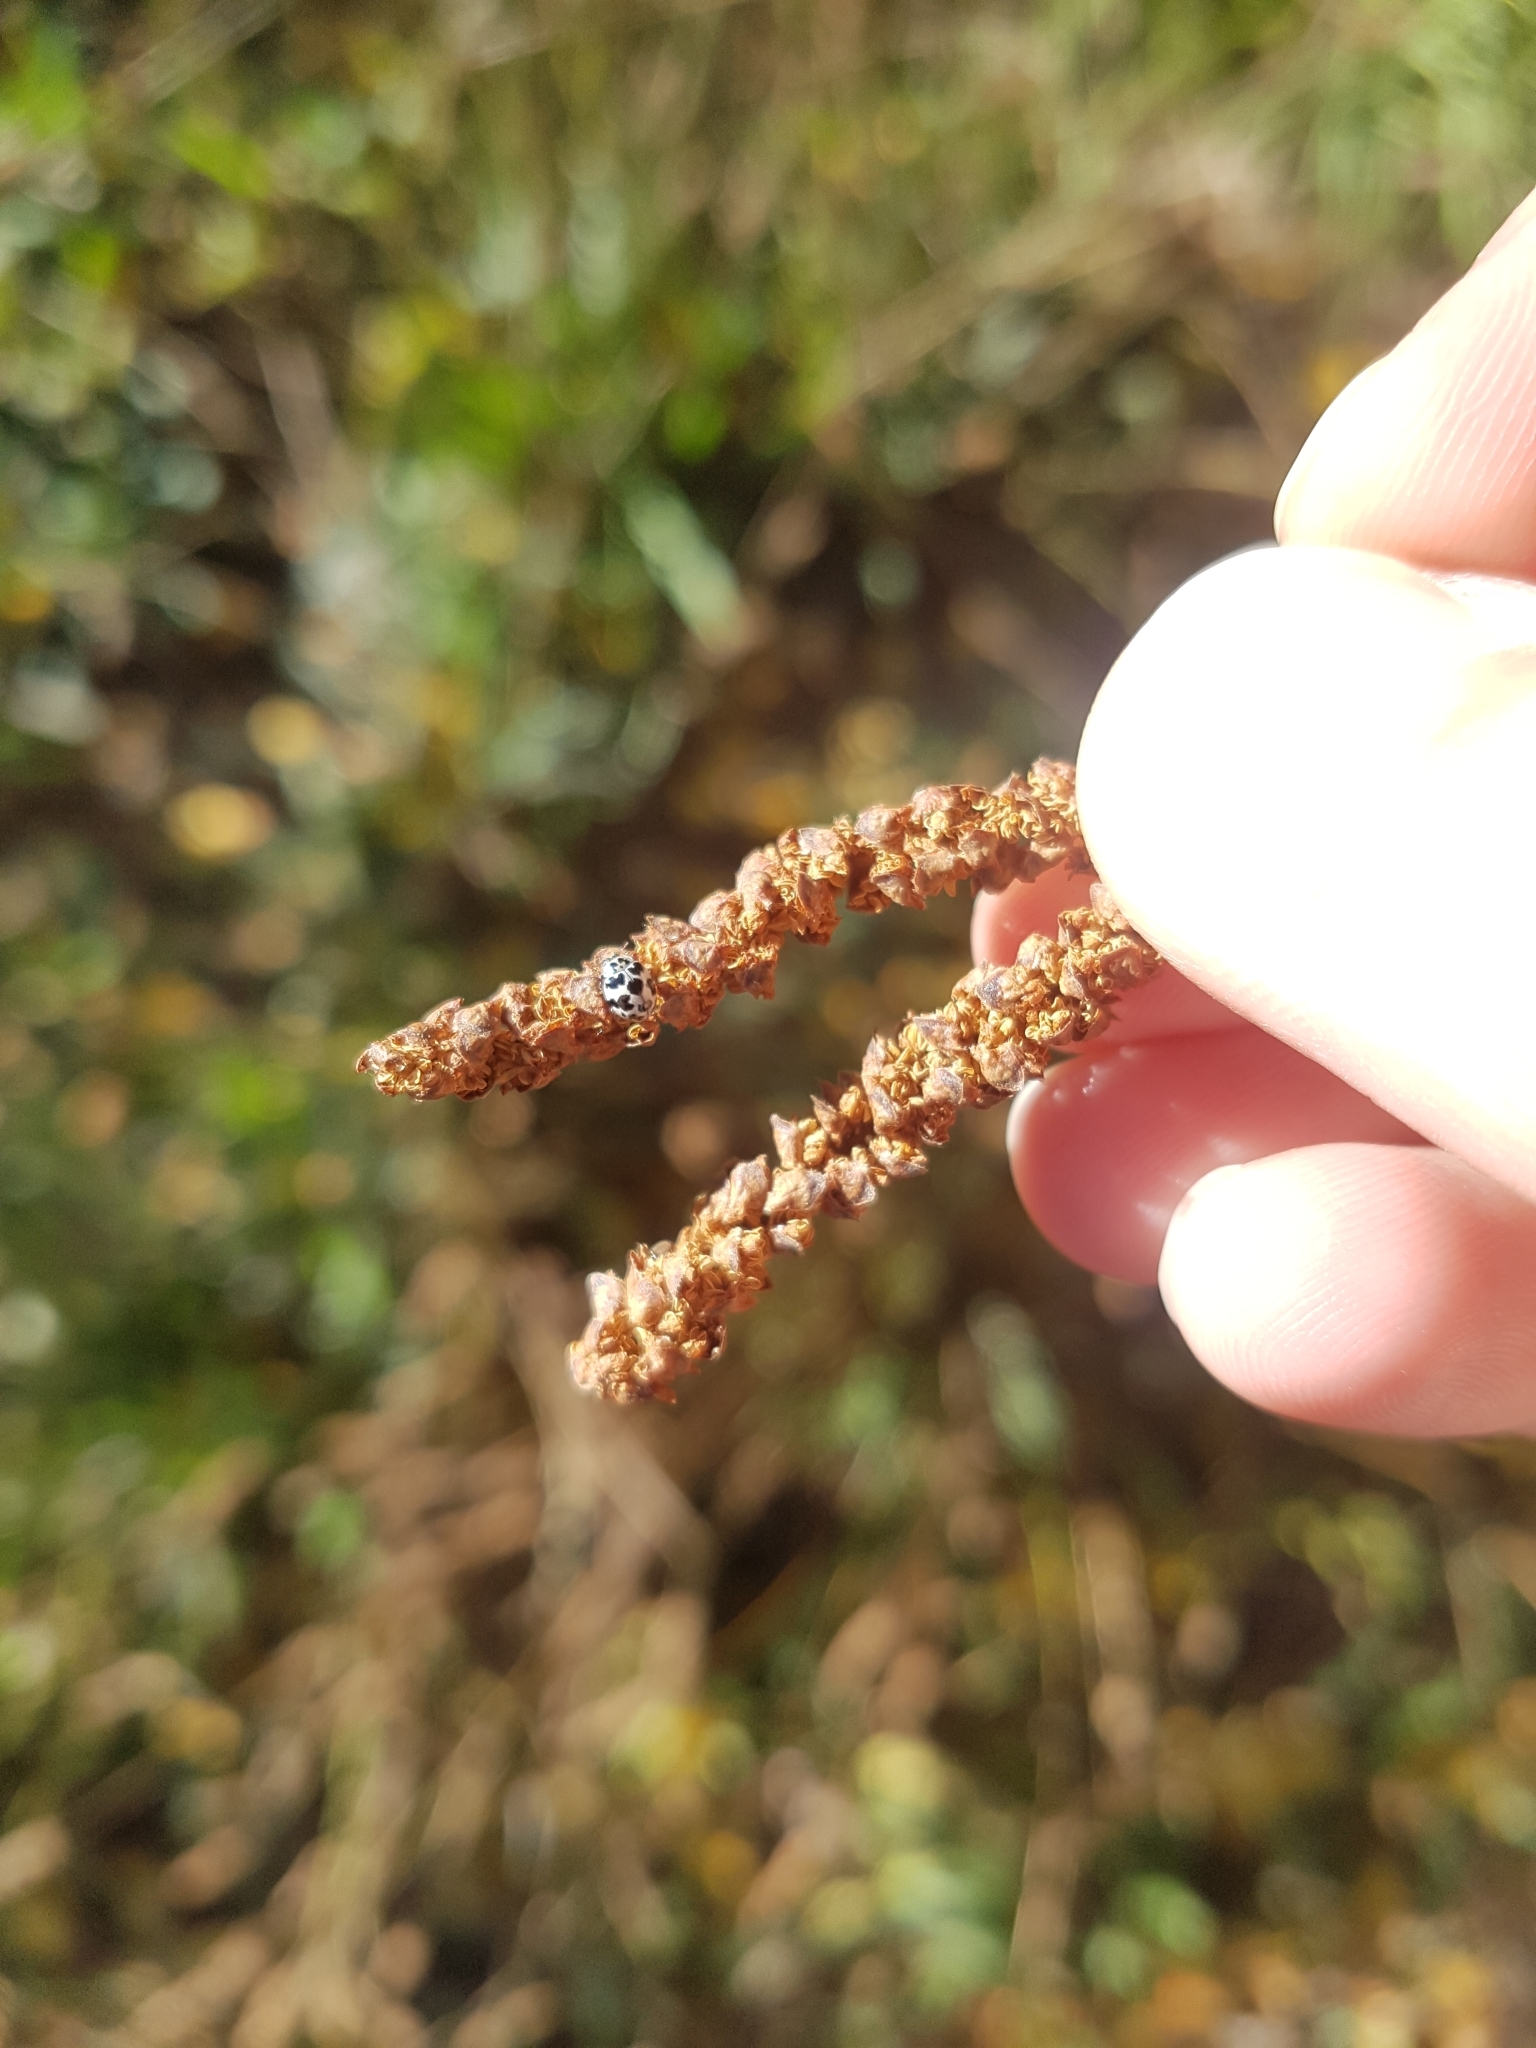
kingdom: Animalia
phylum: Arthropoda
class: Insecta
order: Coleoptera
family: Coccinellidae
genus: Psyllobora
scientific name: Psyllobora
